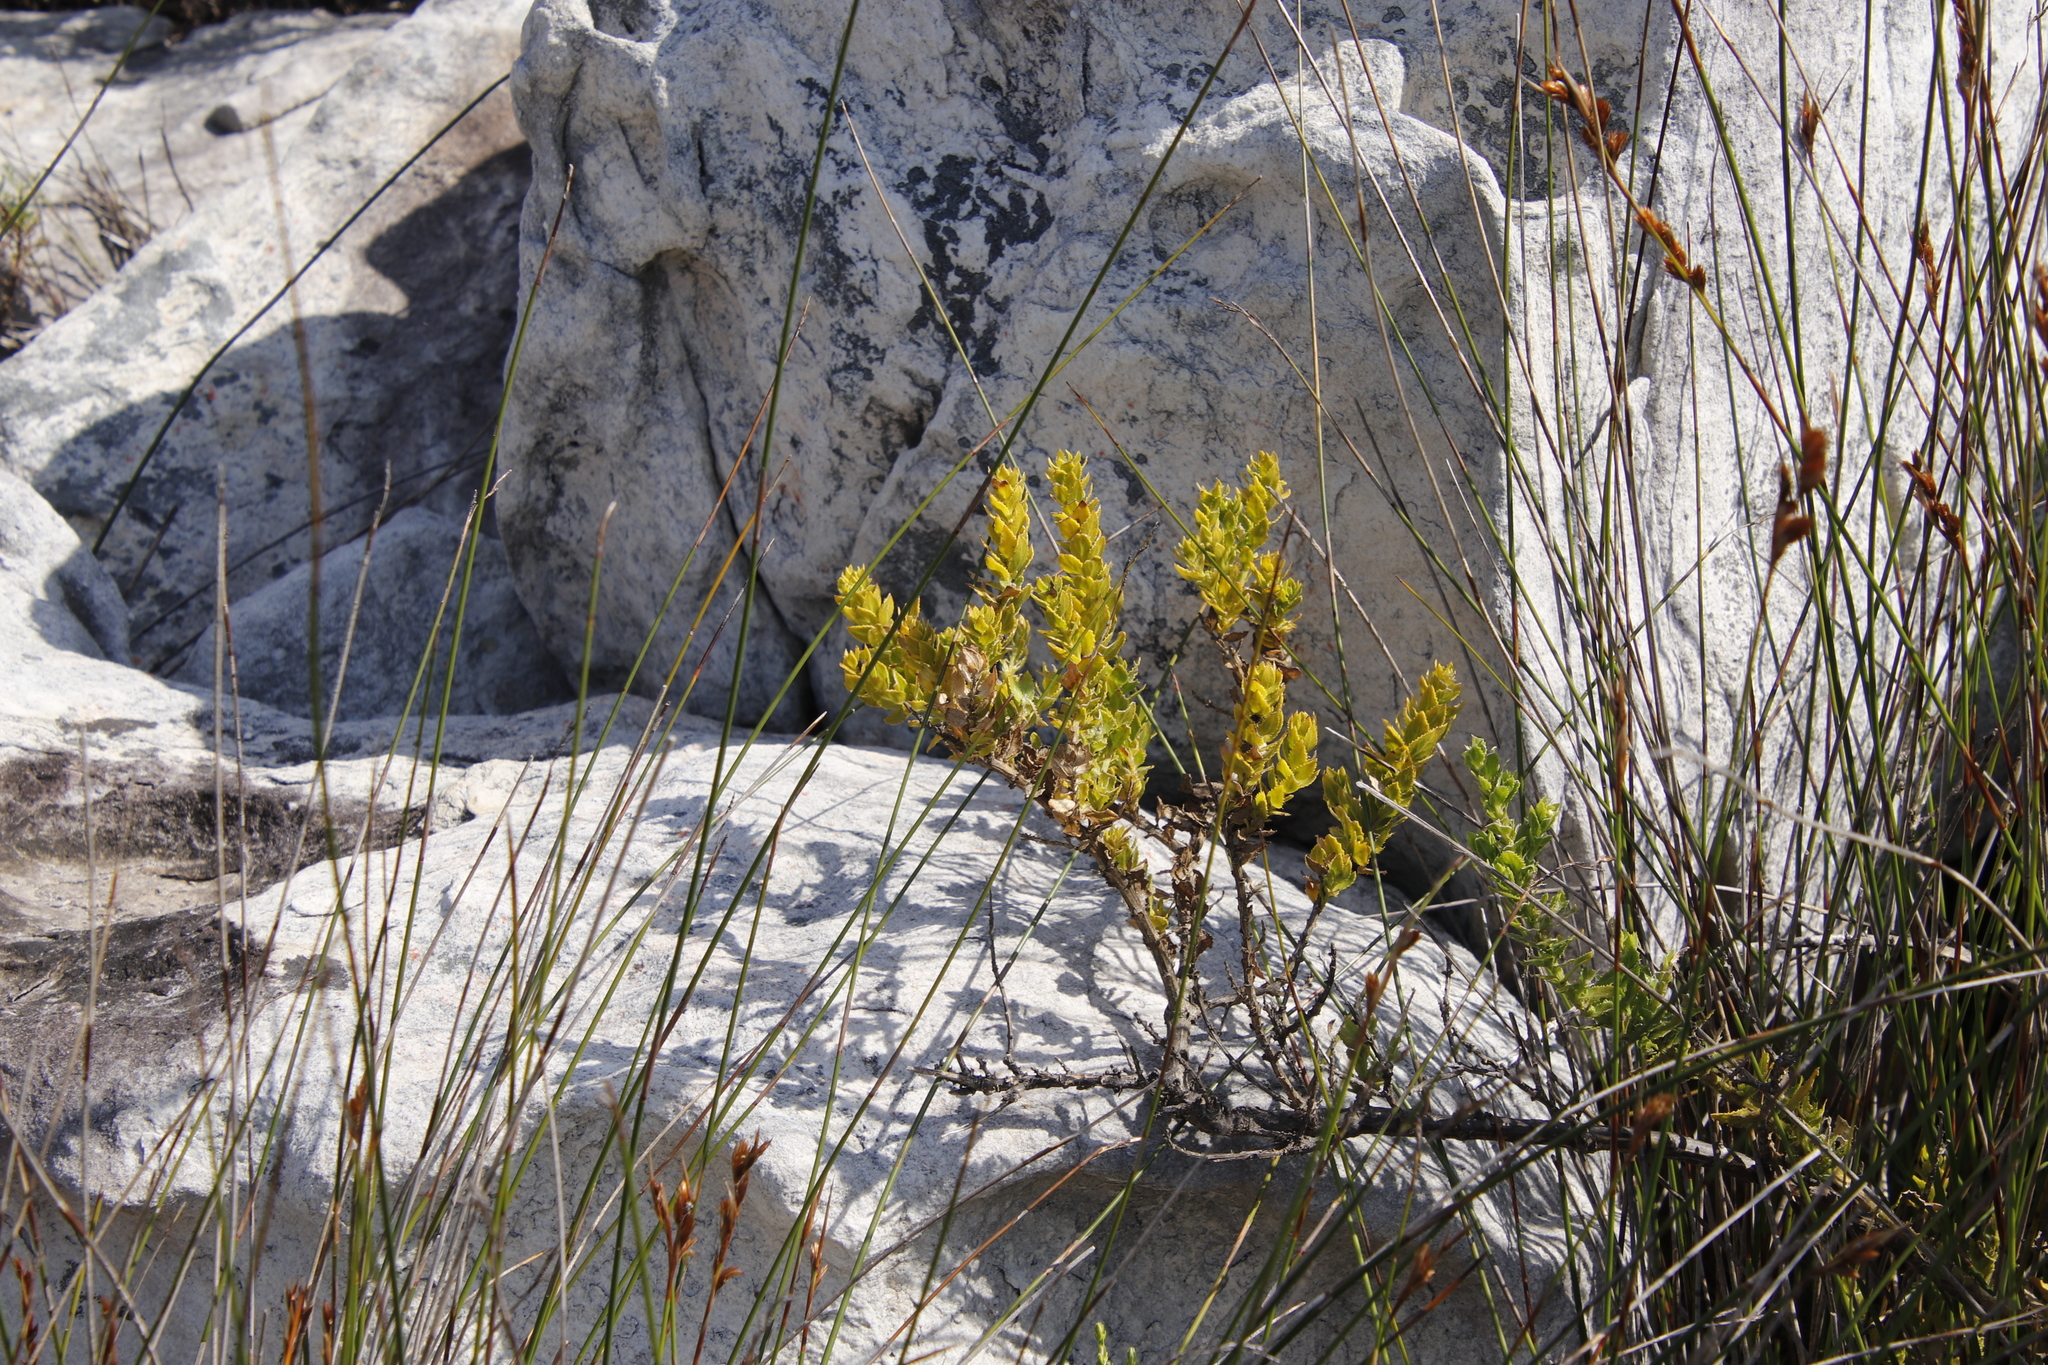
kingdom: Plantae
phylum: Tracheophyta
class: Magnoliopsida
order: Lamiales
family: Scrophulariaceae
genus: Oftia
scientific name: Oftia africana
